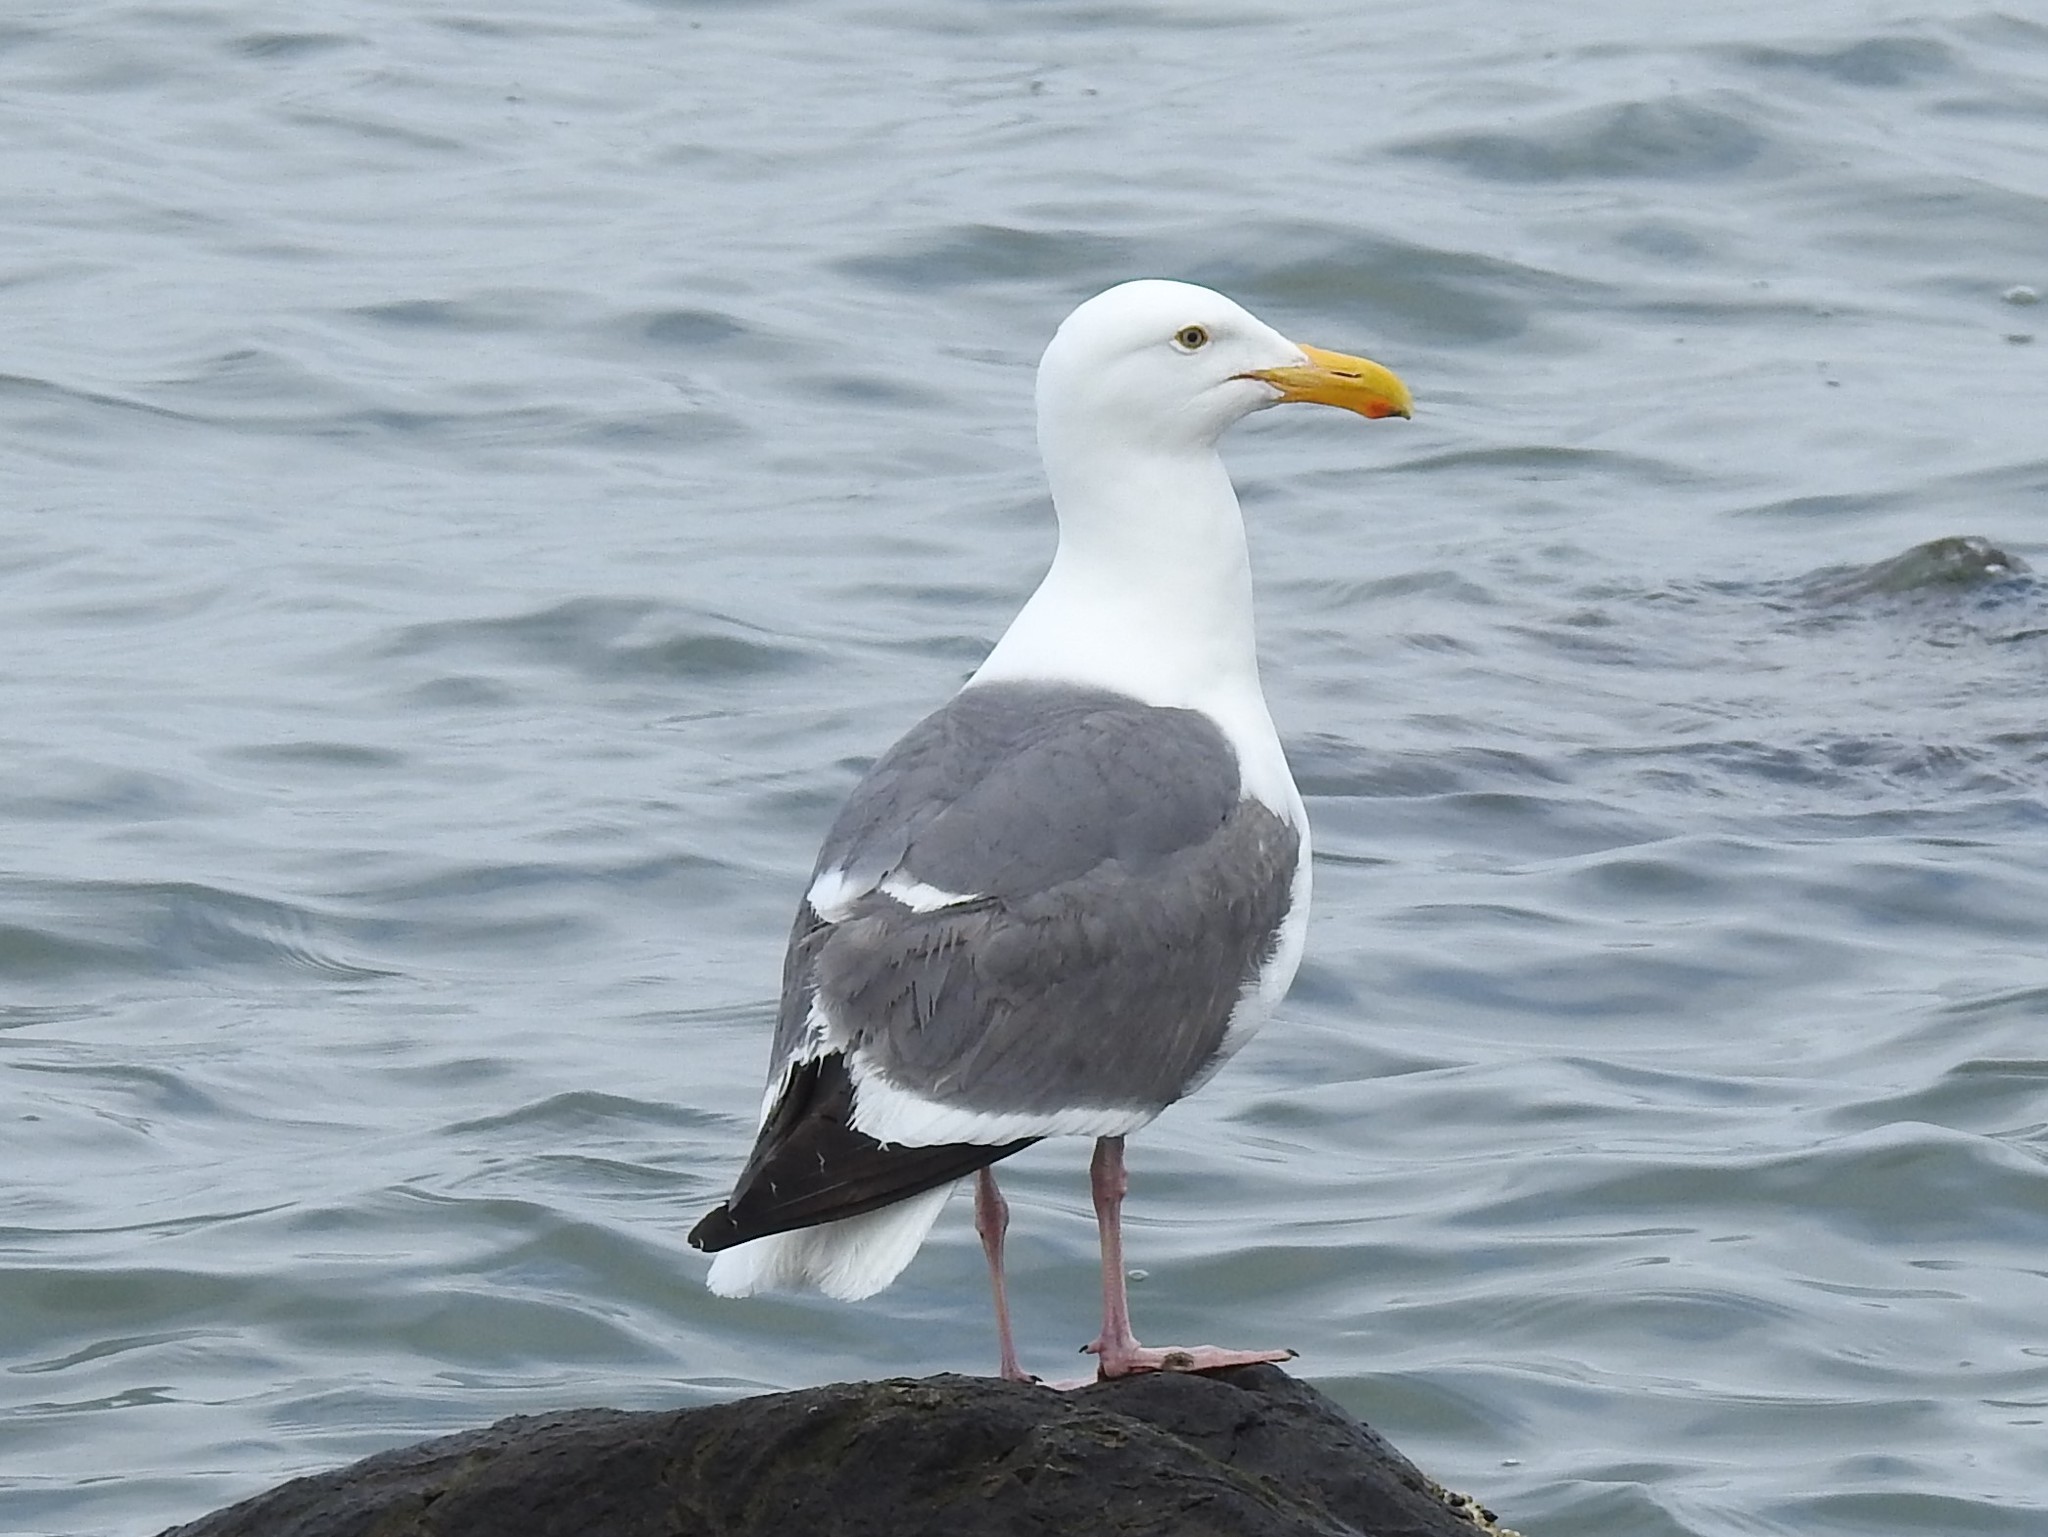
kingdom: Animalia
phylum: Chordata
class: Aves
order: Charadriiformes
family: Laridae
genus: Larus
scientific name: Larus occidentalis
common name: Western gull
